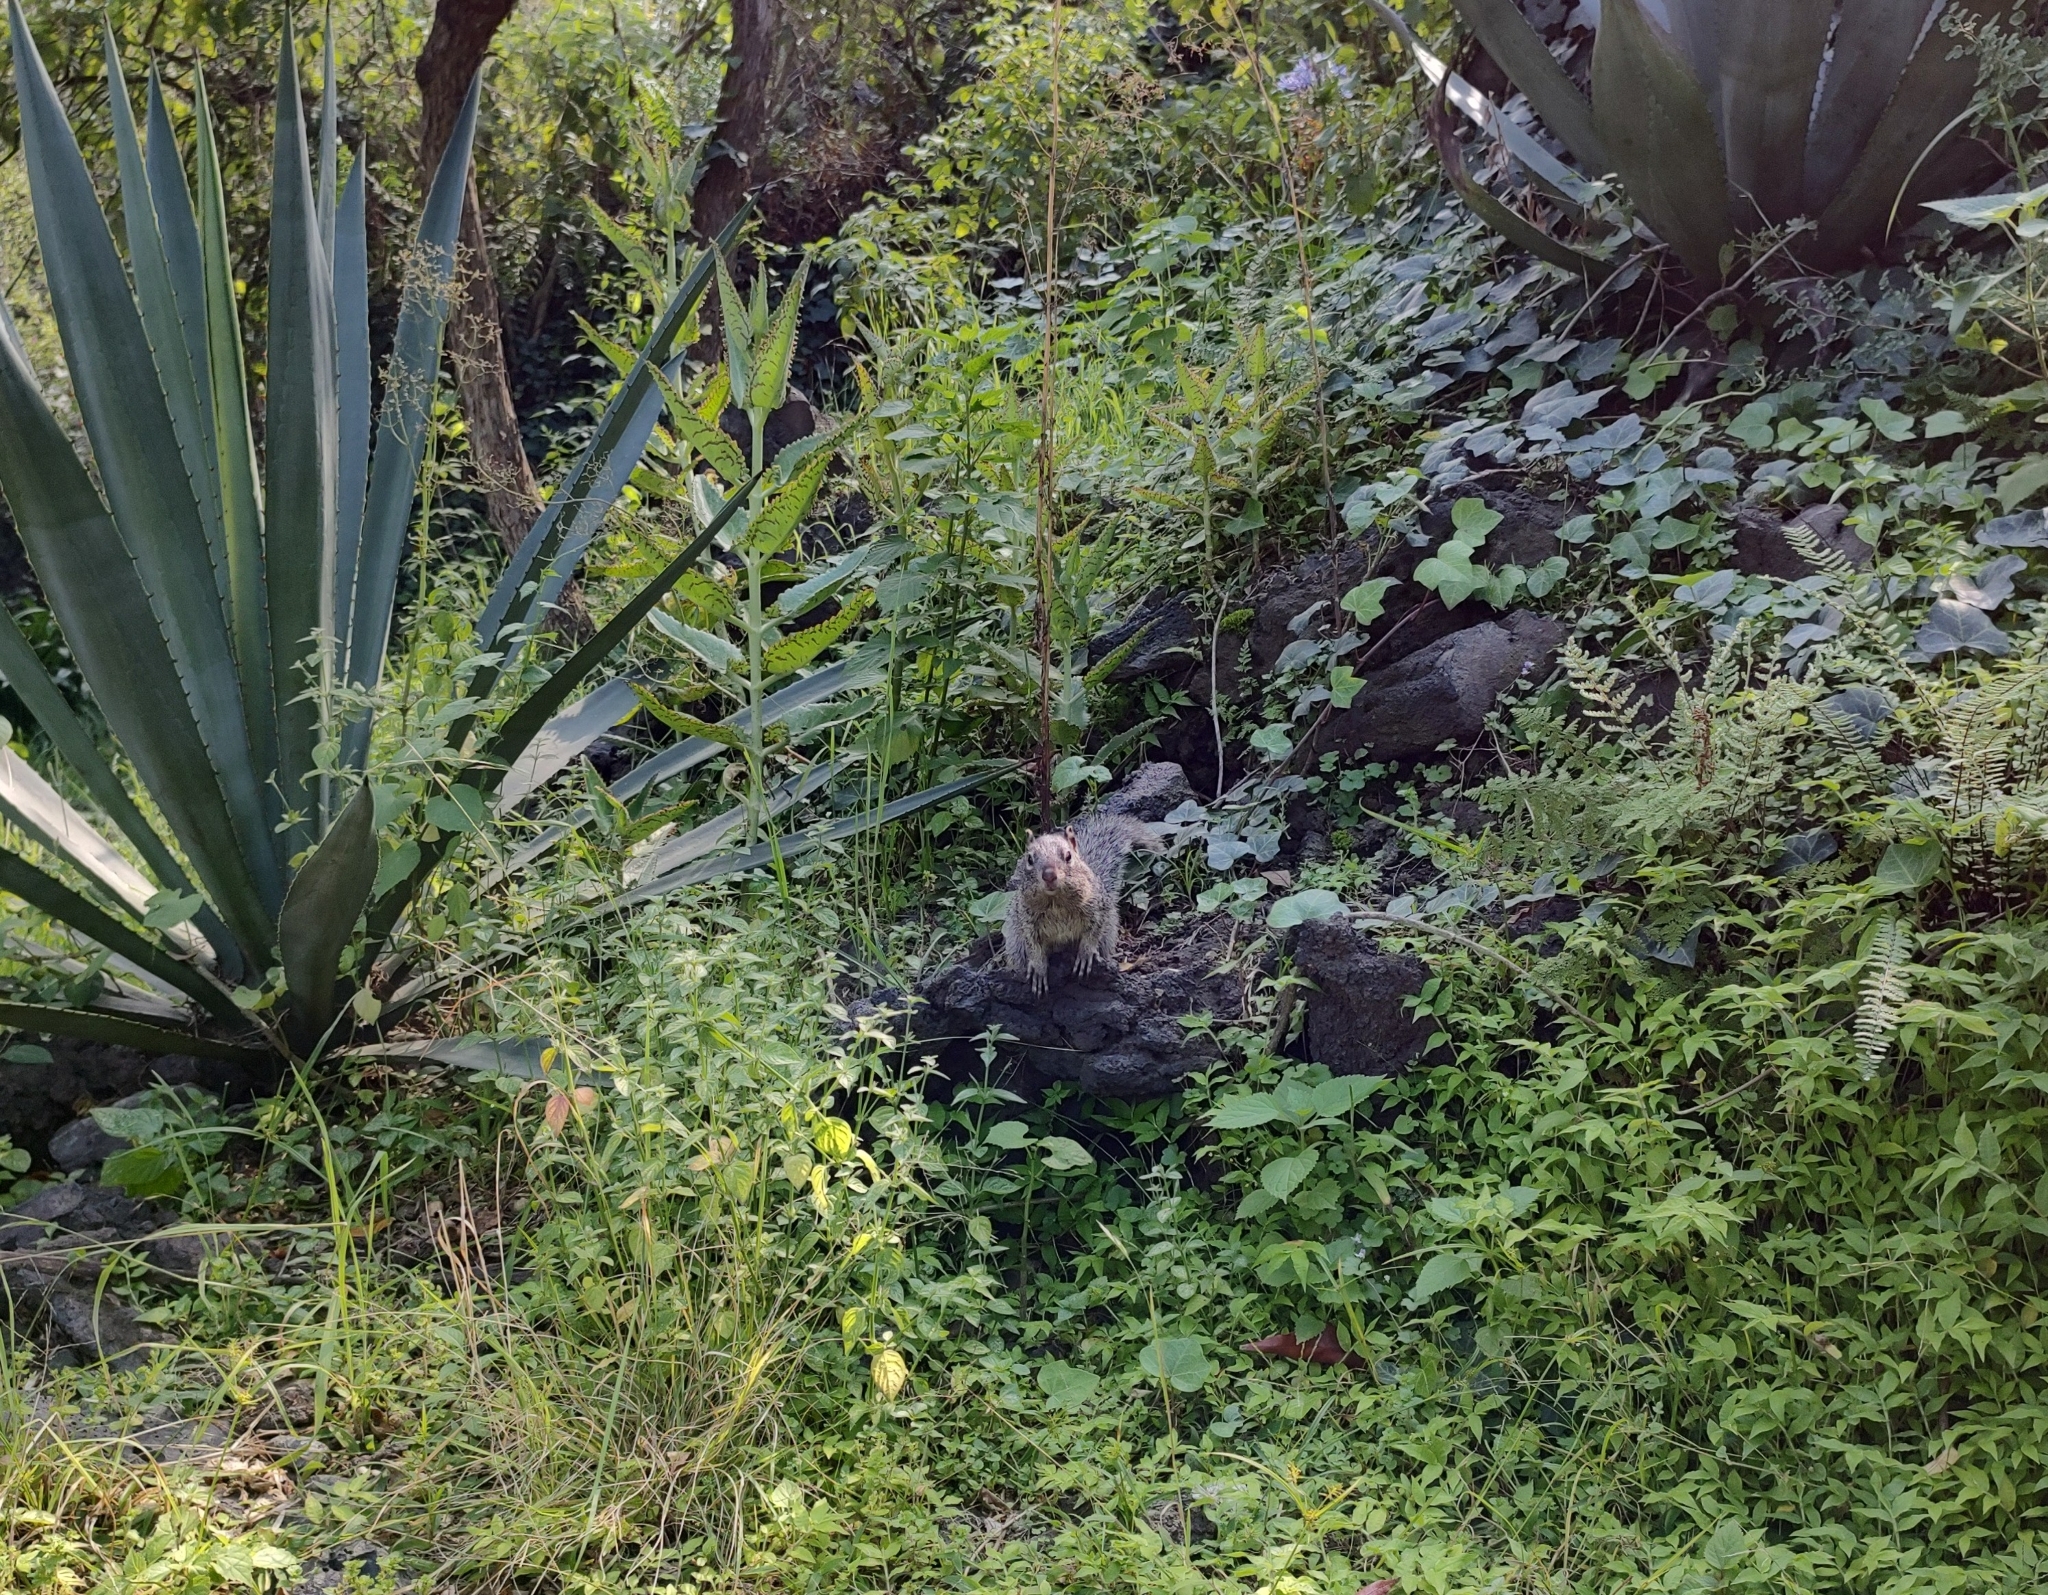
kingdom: Animalia
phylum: Chordata
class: Mammalia
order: Rodentia
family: Sciuridae
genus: Otospermophilus
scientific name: Otospermophilus variegatus
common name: Rock squirrel
